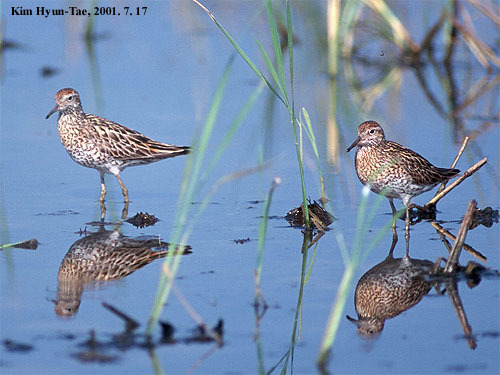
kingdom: Animalia
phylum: Chordata
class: Aves
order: Charadriiformes
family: Scolopacidae
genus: Calidris
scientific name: Calidris acuminata
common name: Sharp-tailed sandpiper
